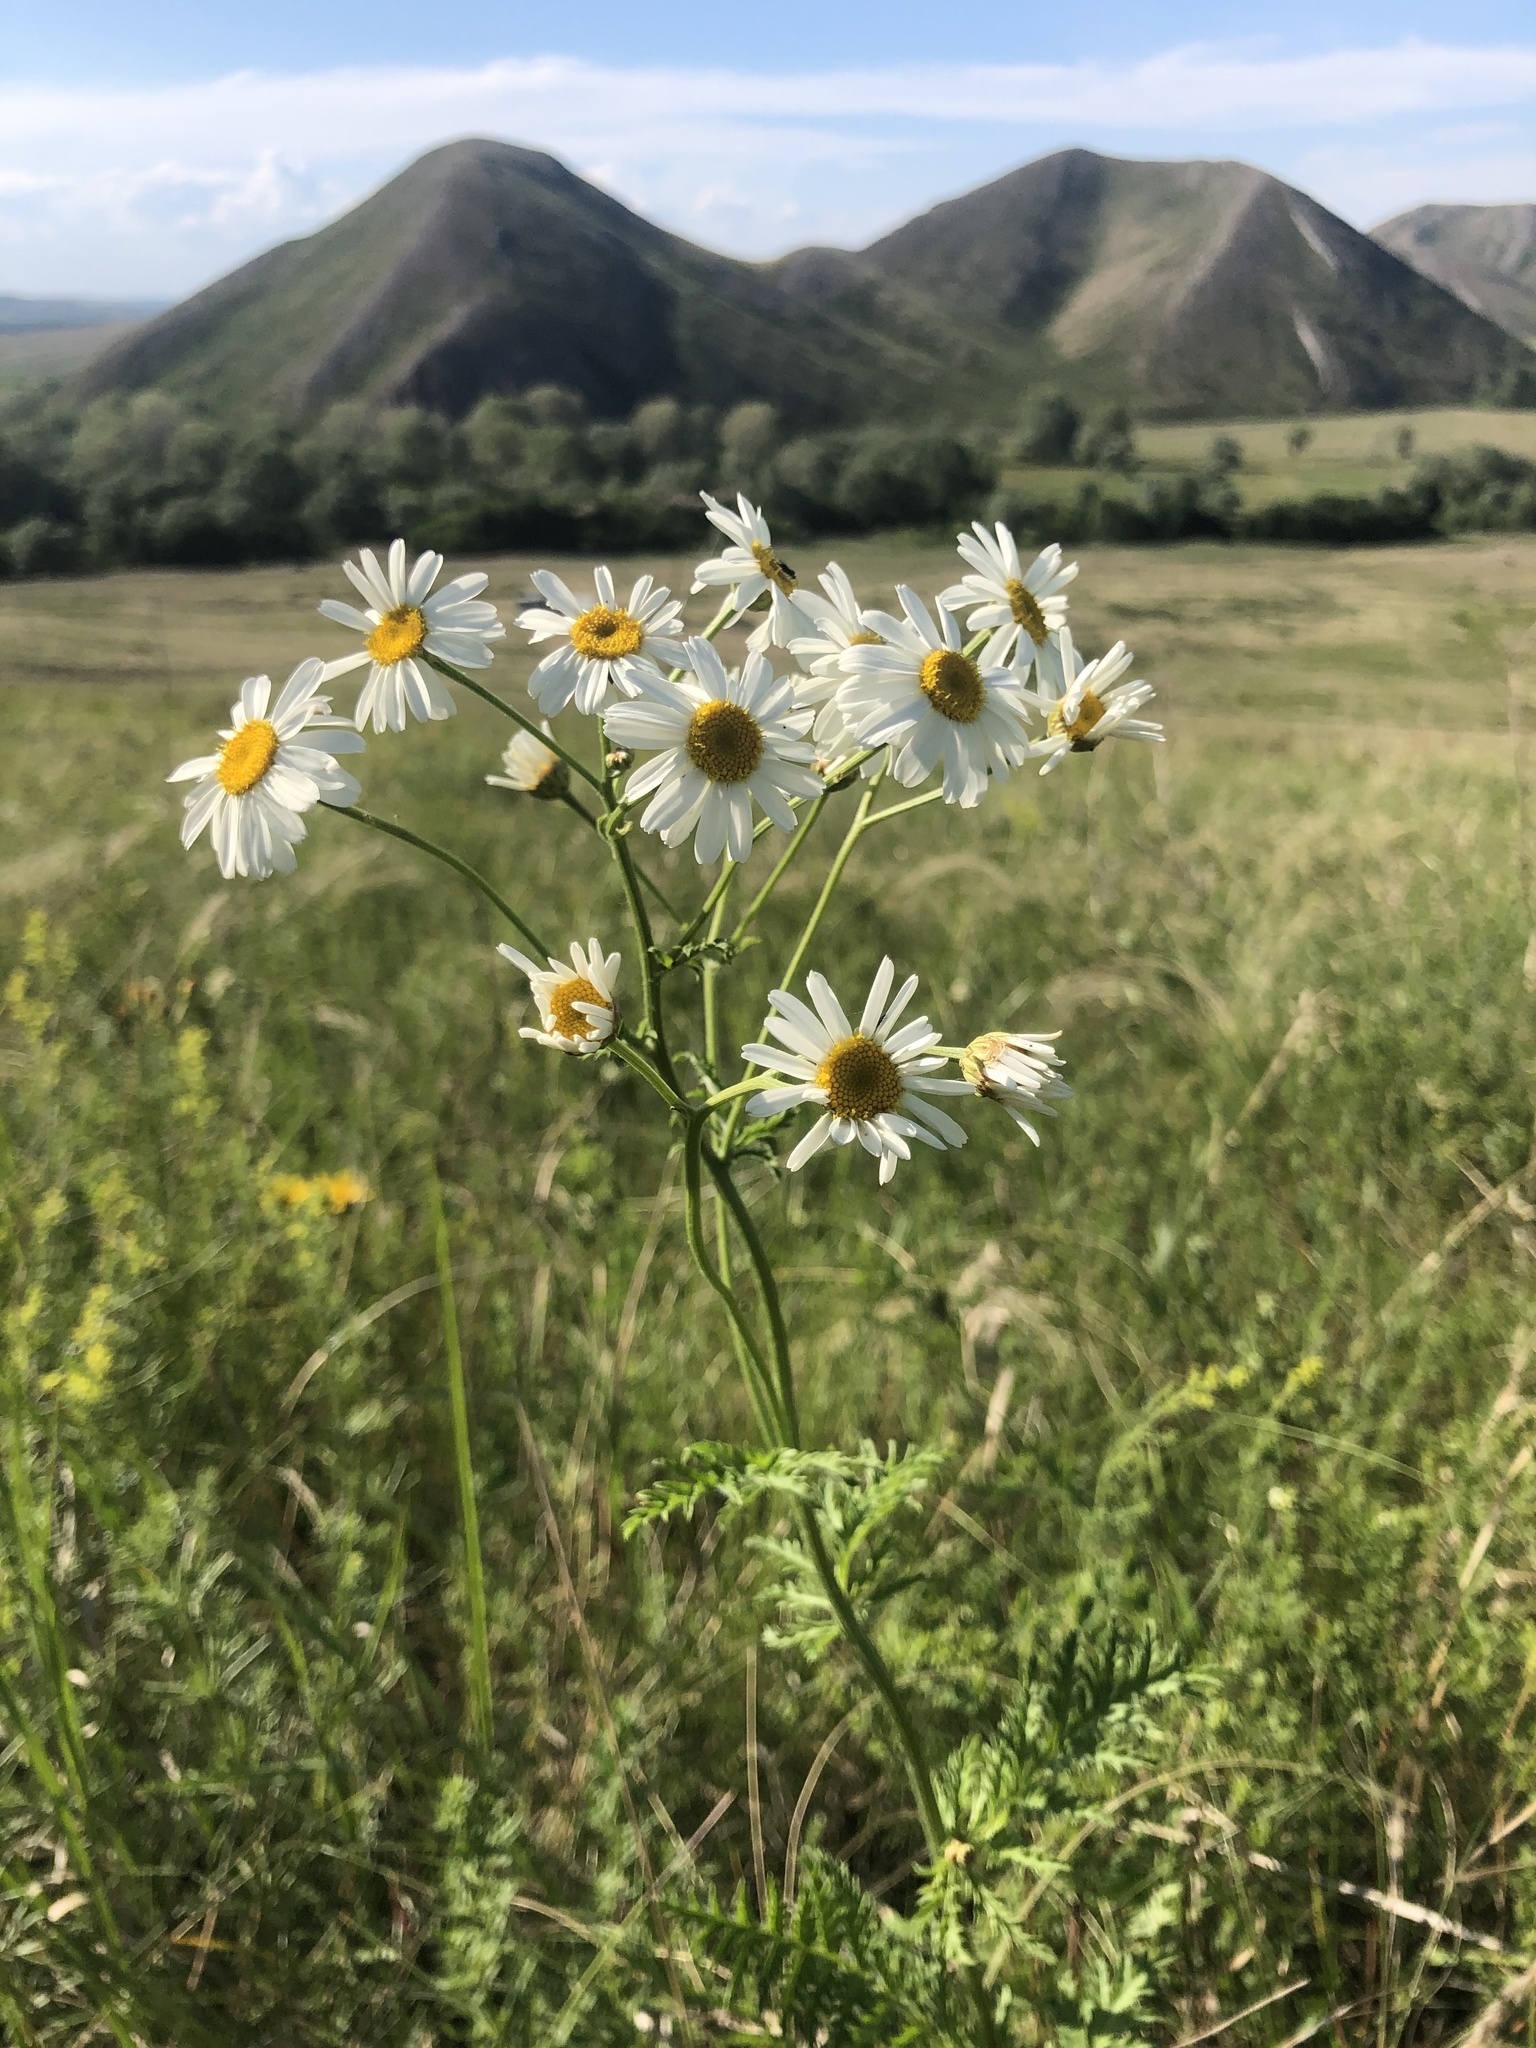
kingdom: Plantae
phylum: Tracheophyta
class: Magnoliopsida
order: Asterales
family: Asteraceae
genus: Tanacetum
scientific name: Tanacetum corymbosum
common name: Scentless feverfew
